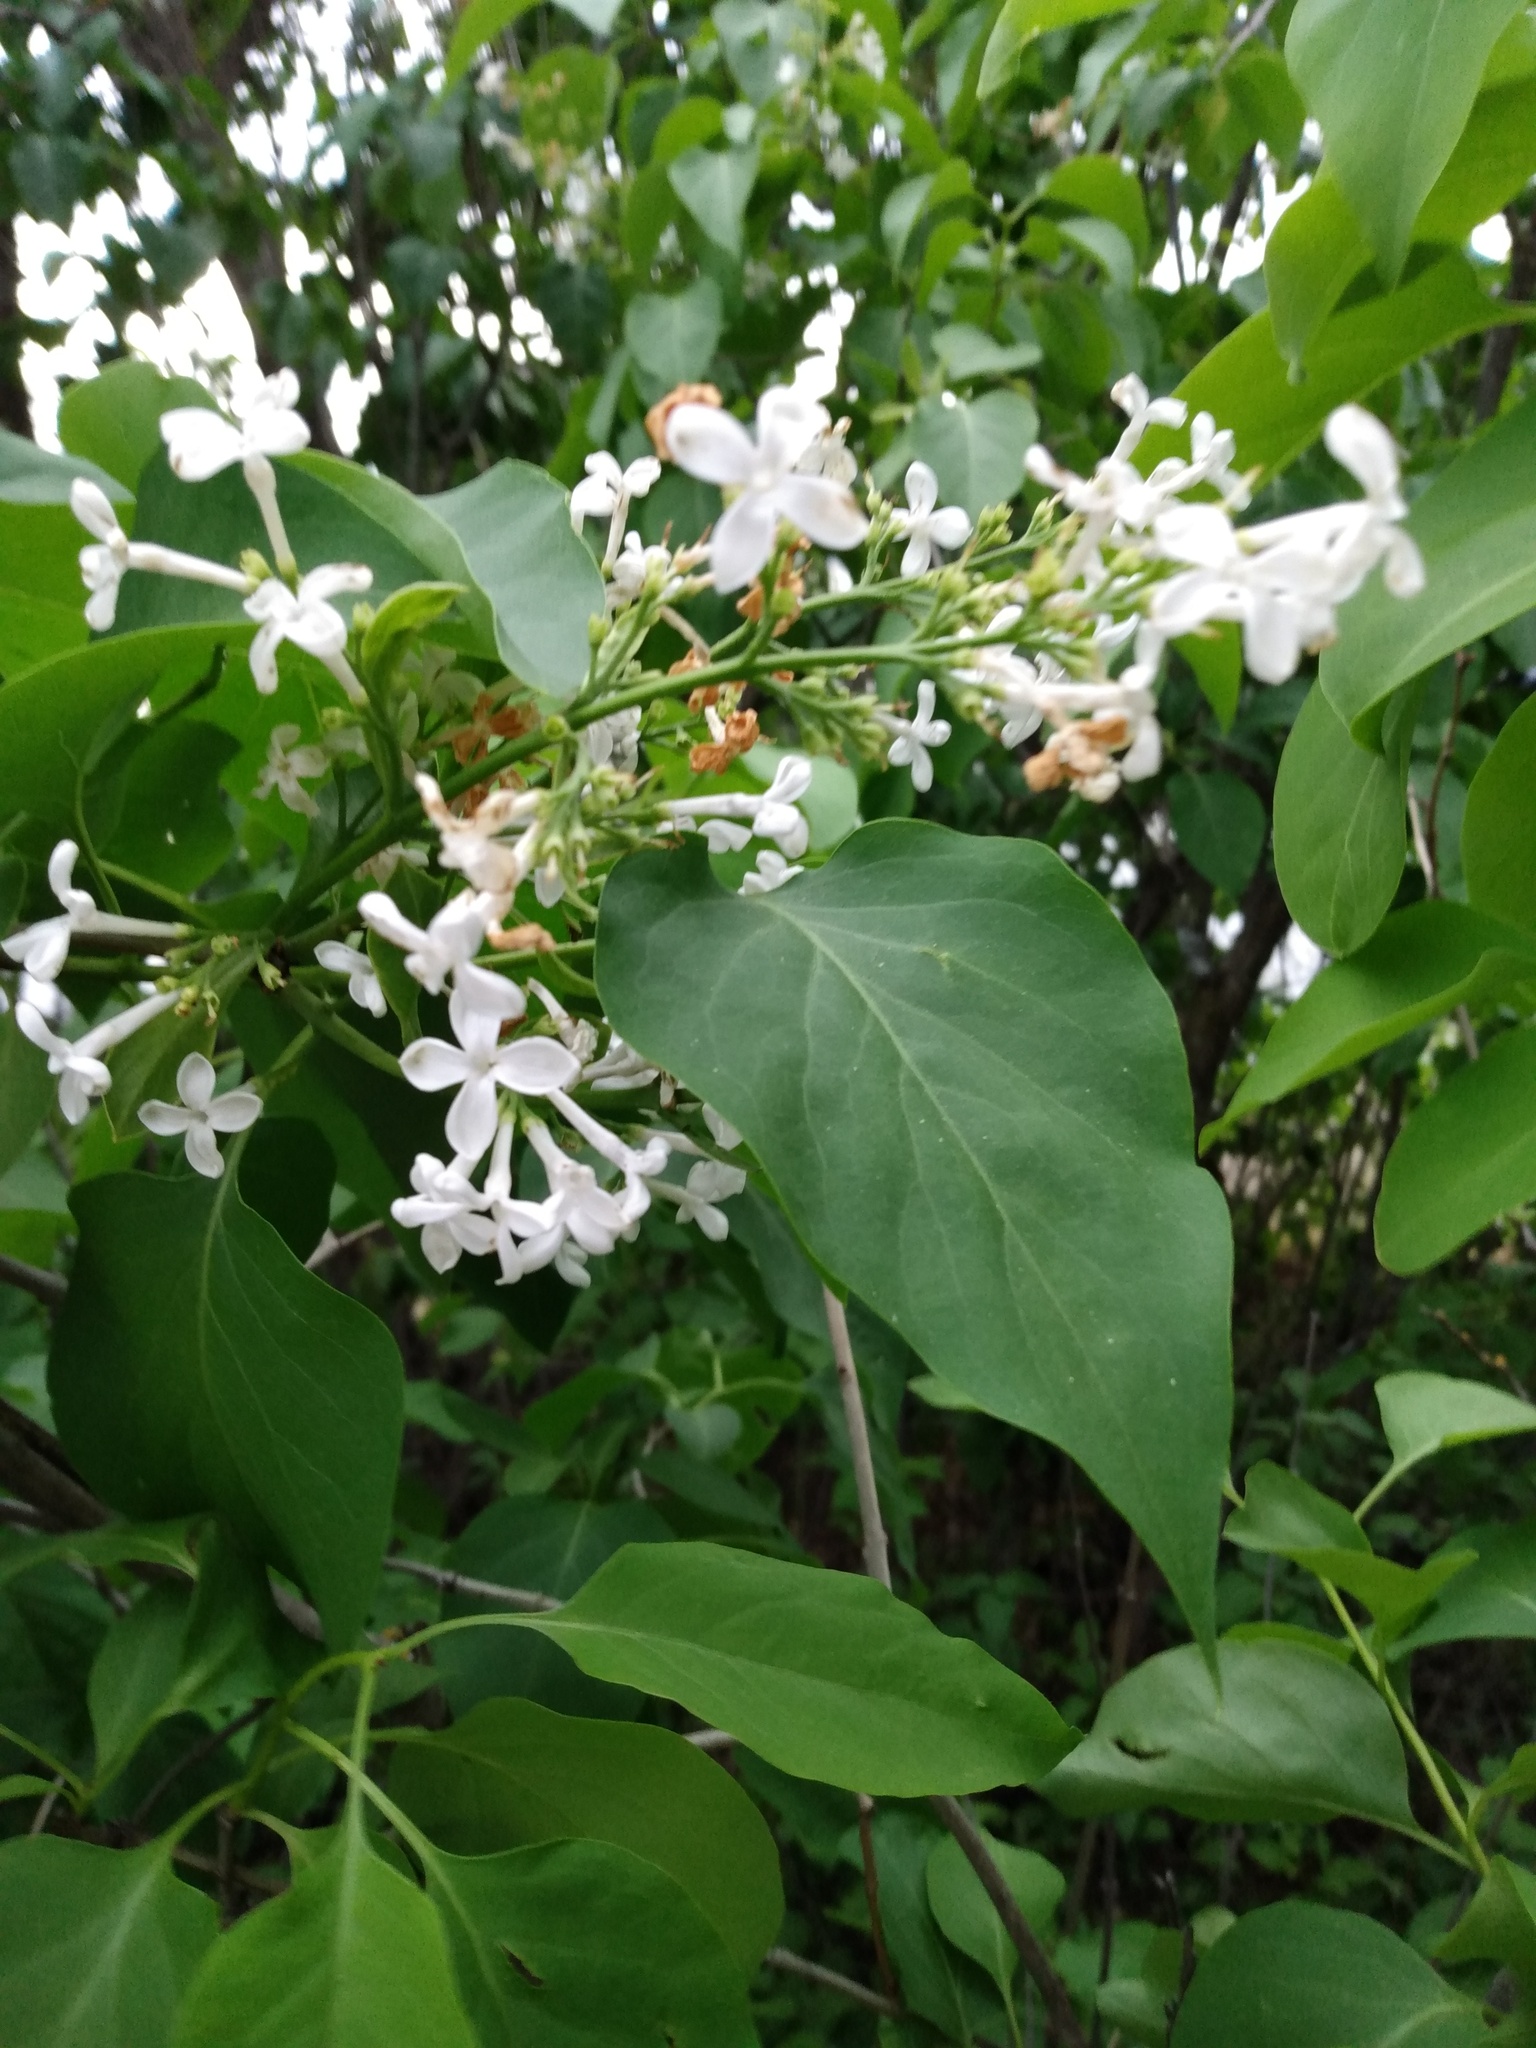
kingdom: Plantae
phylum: Tracheophyta
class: Magnoliopsida
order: Lamiales
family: Oleaceae
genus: Syringa
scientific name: Syringa vulgaris
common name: Common lilac
